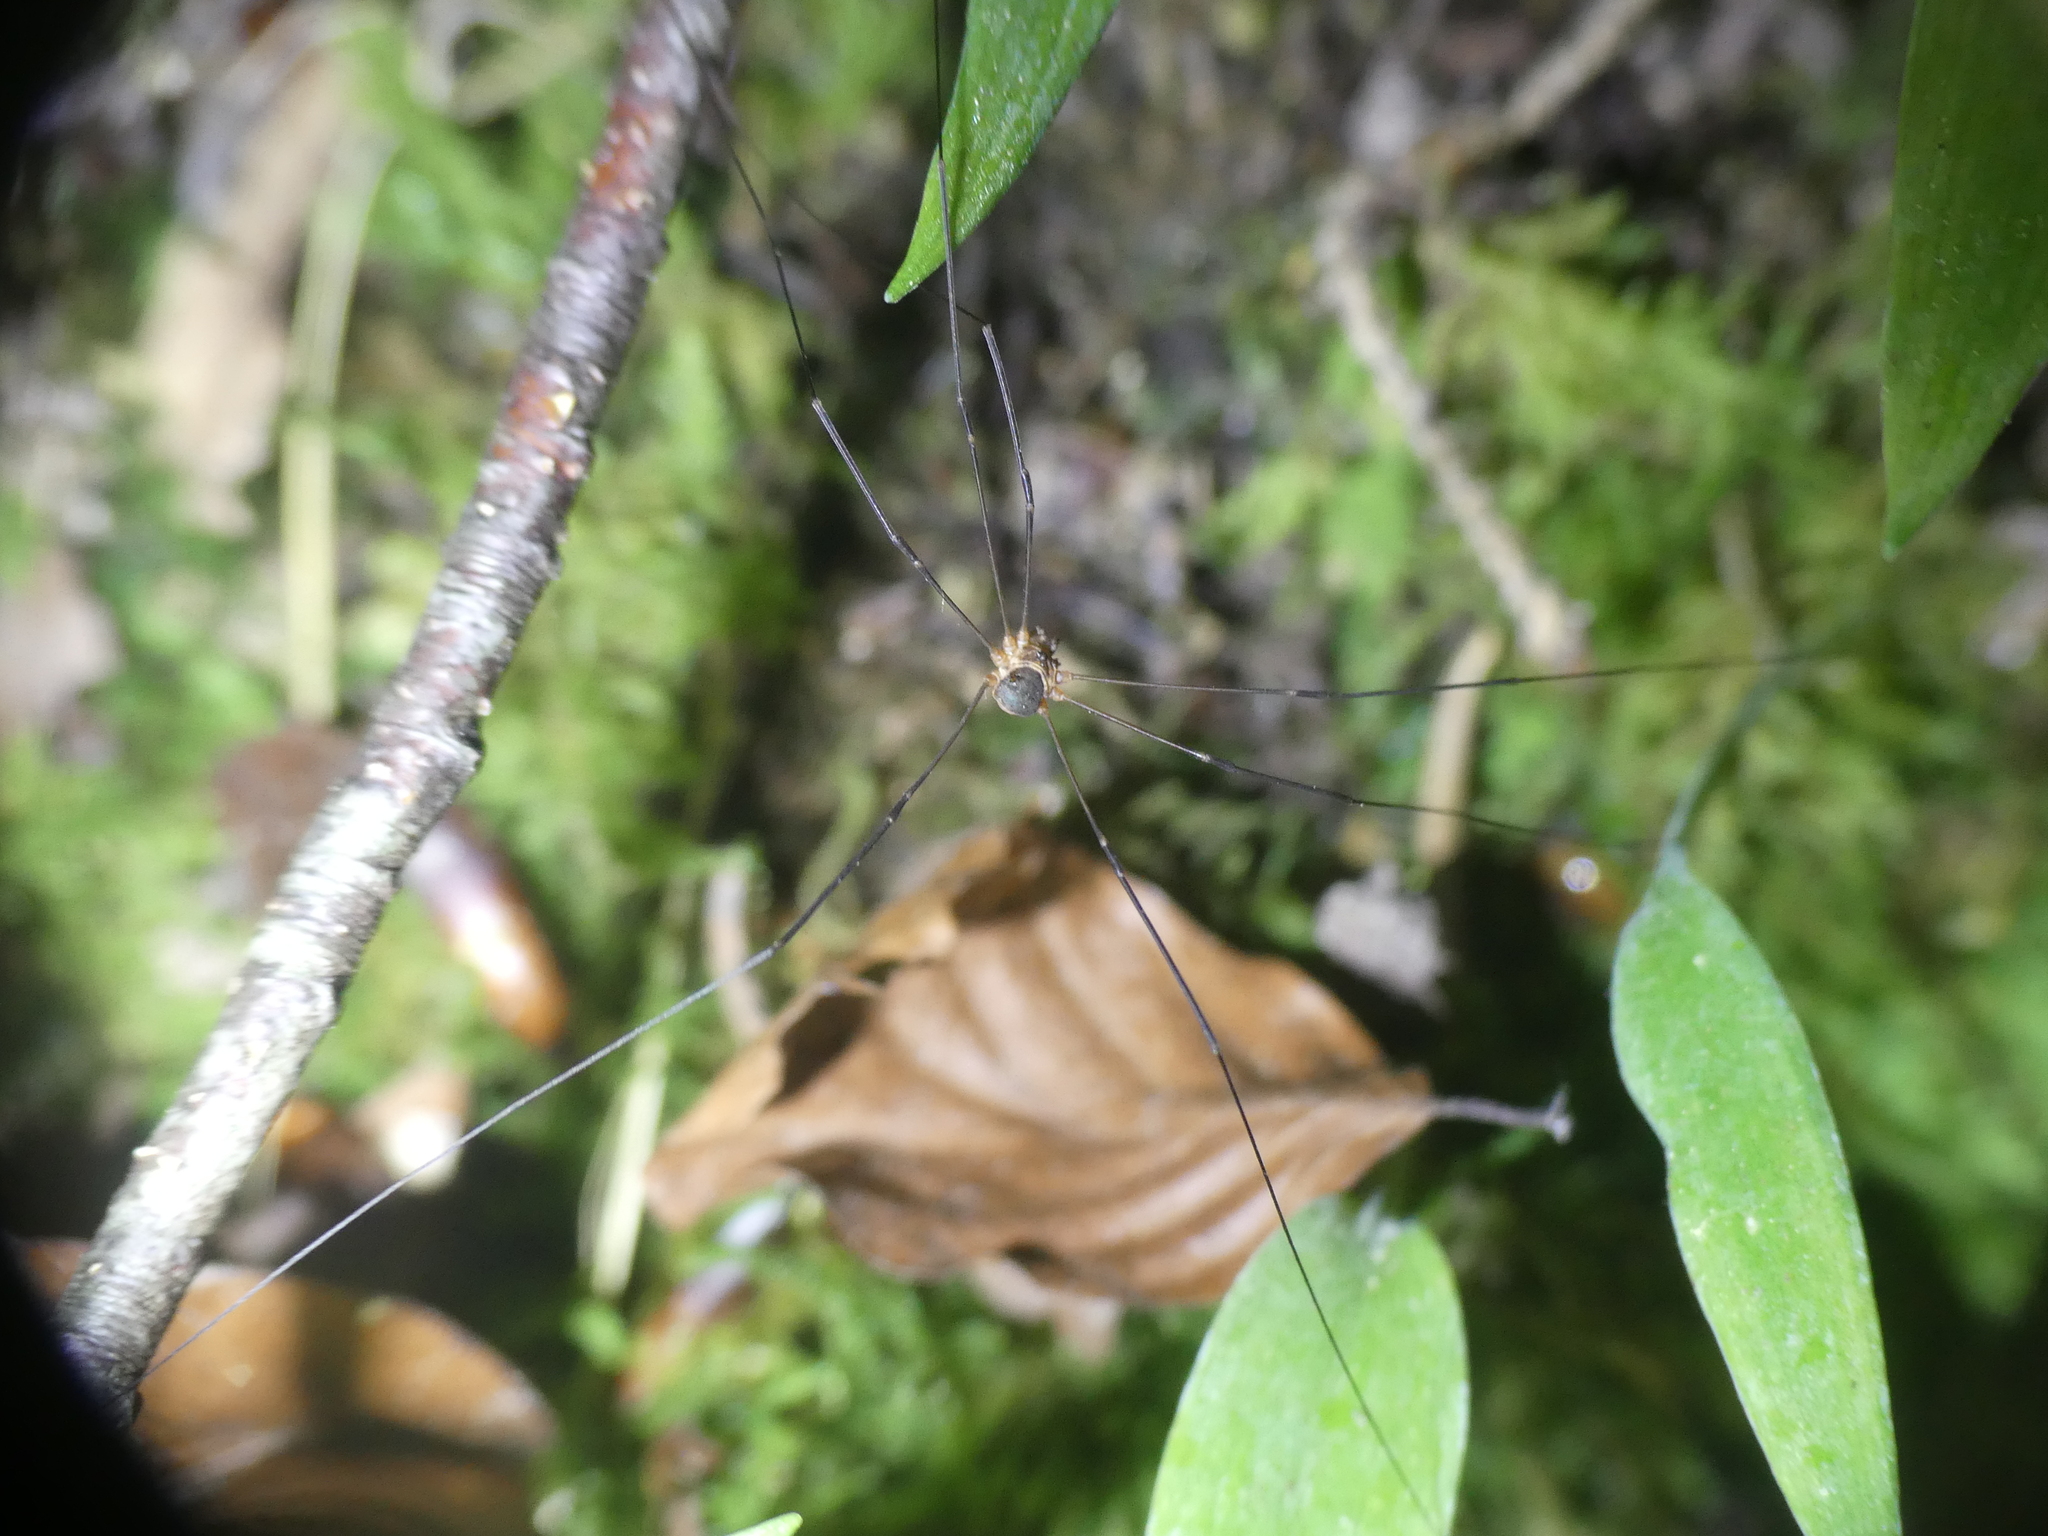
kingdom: Animalia
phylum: Arthropoda
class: Arachnida
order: Opiliones
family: Phalangiidae
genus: Amilenus
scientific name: Amilenus aurantiacus
